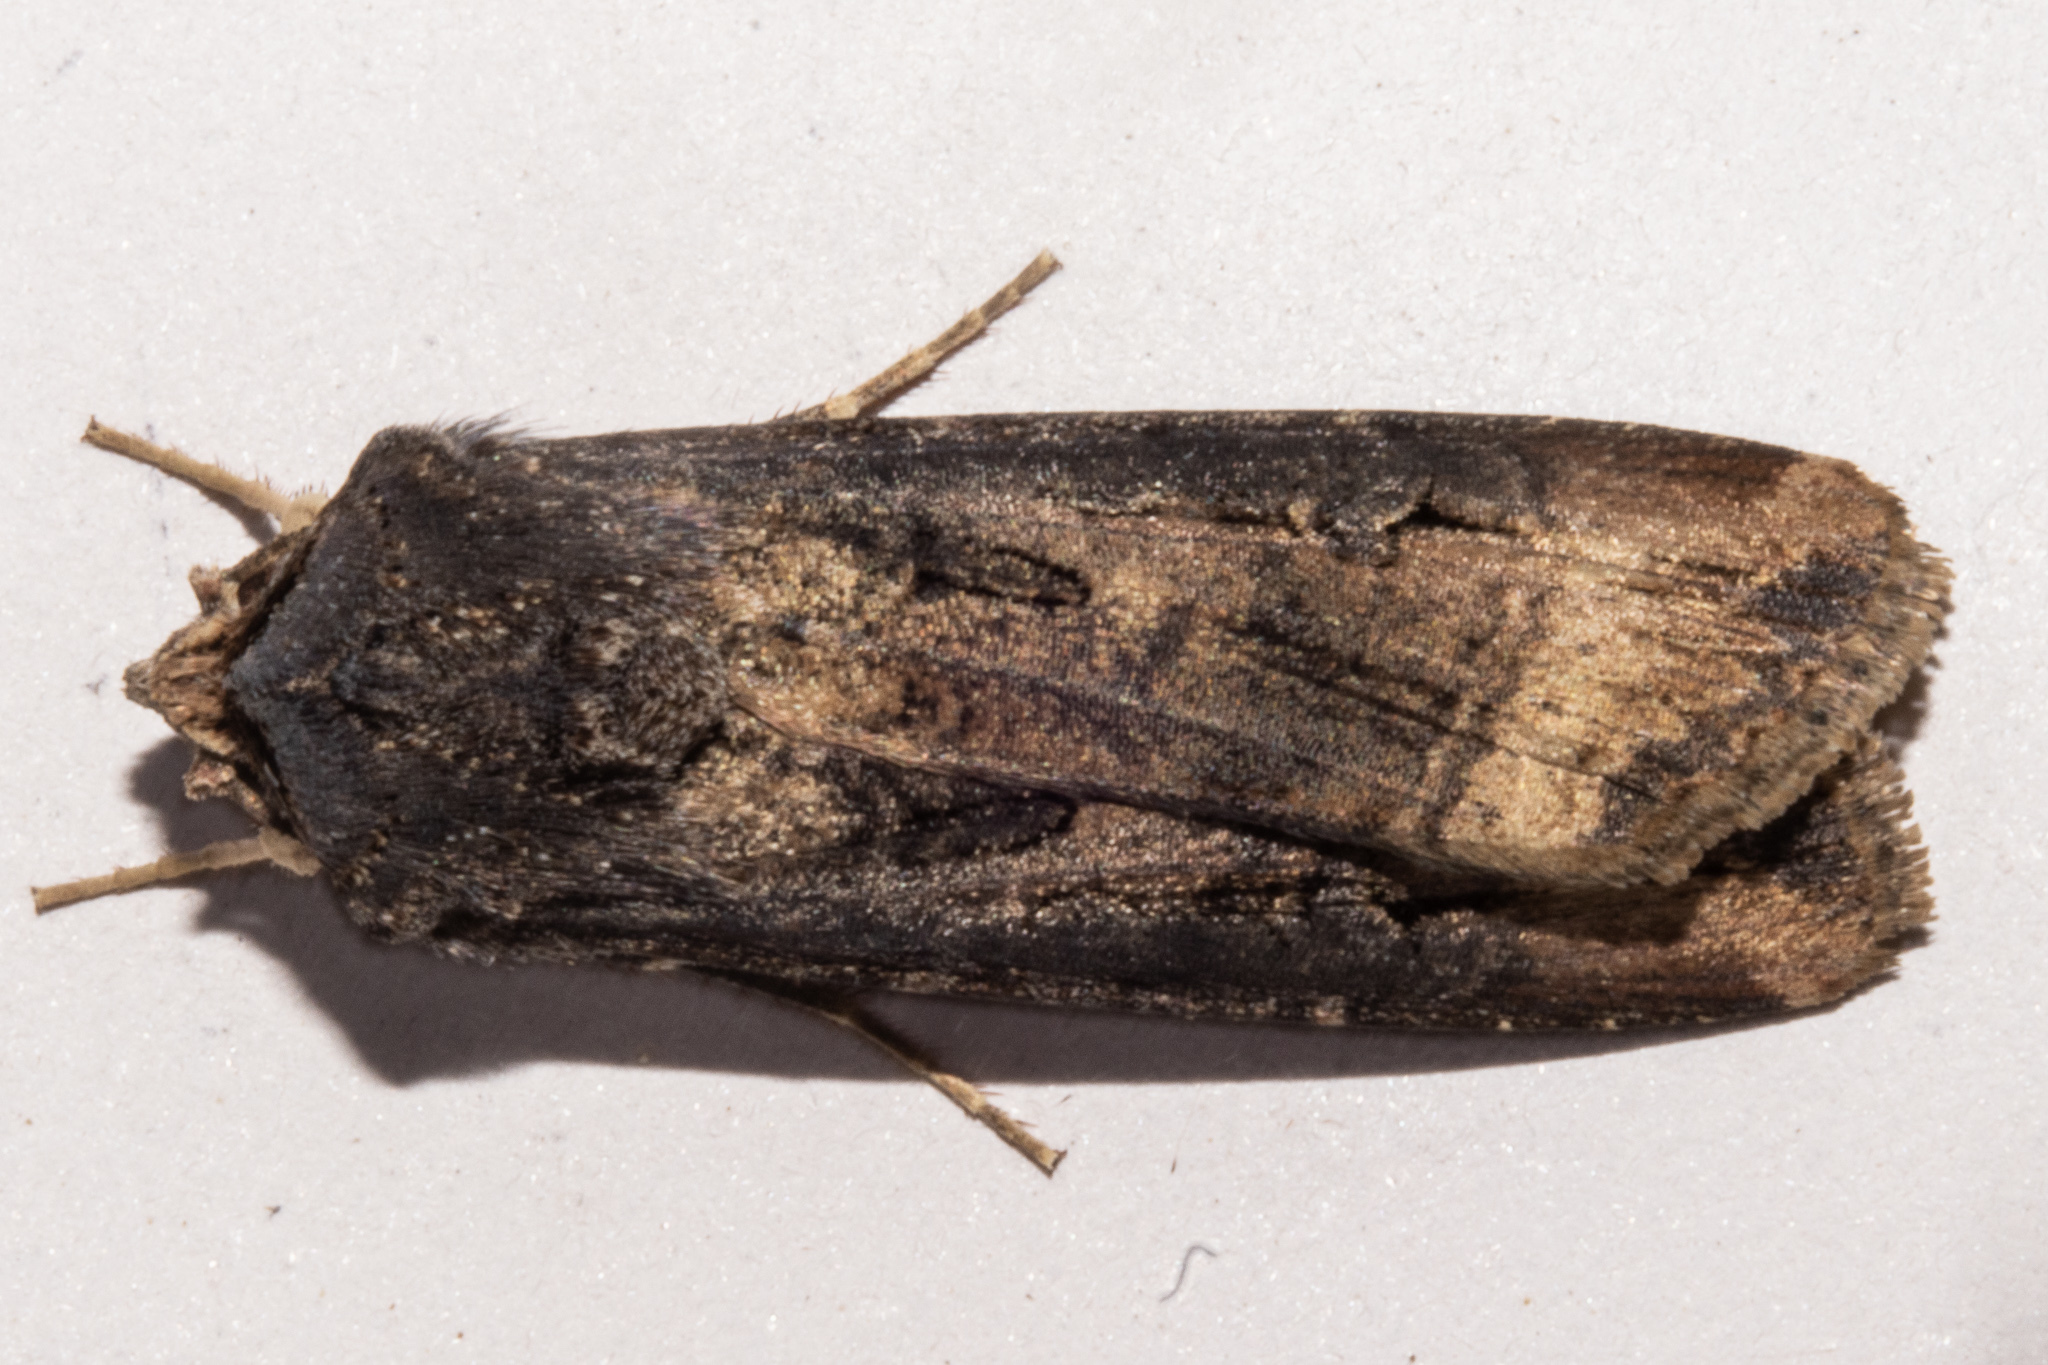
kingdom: Animalia
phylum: Arthropoda
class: Insecta
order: Lepidoptera
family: Noctuidae
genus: Agrotis
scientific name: Agrotis ipsilon
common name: Dark sword-grass
